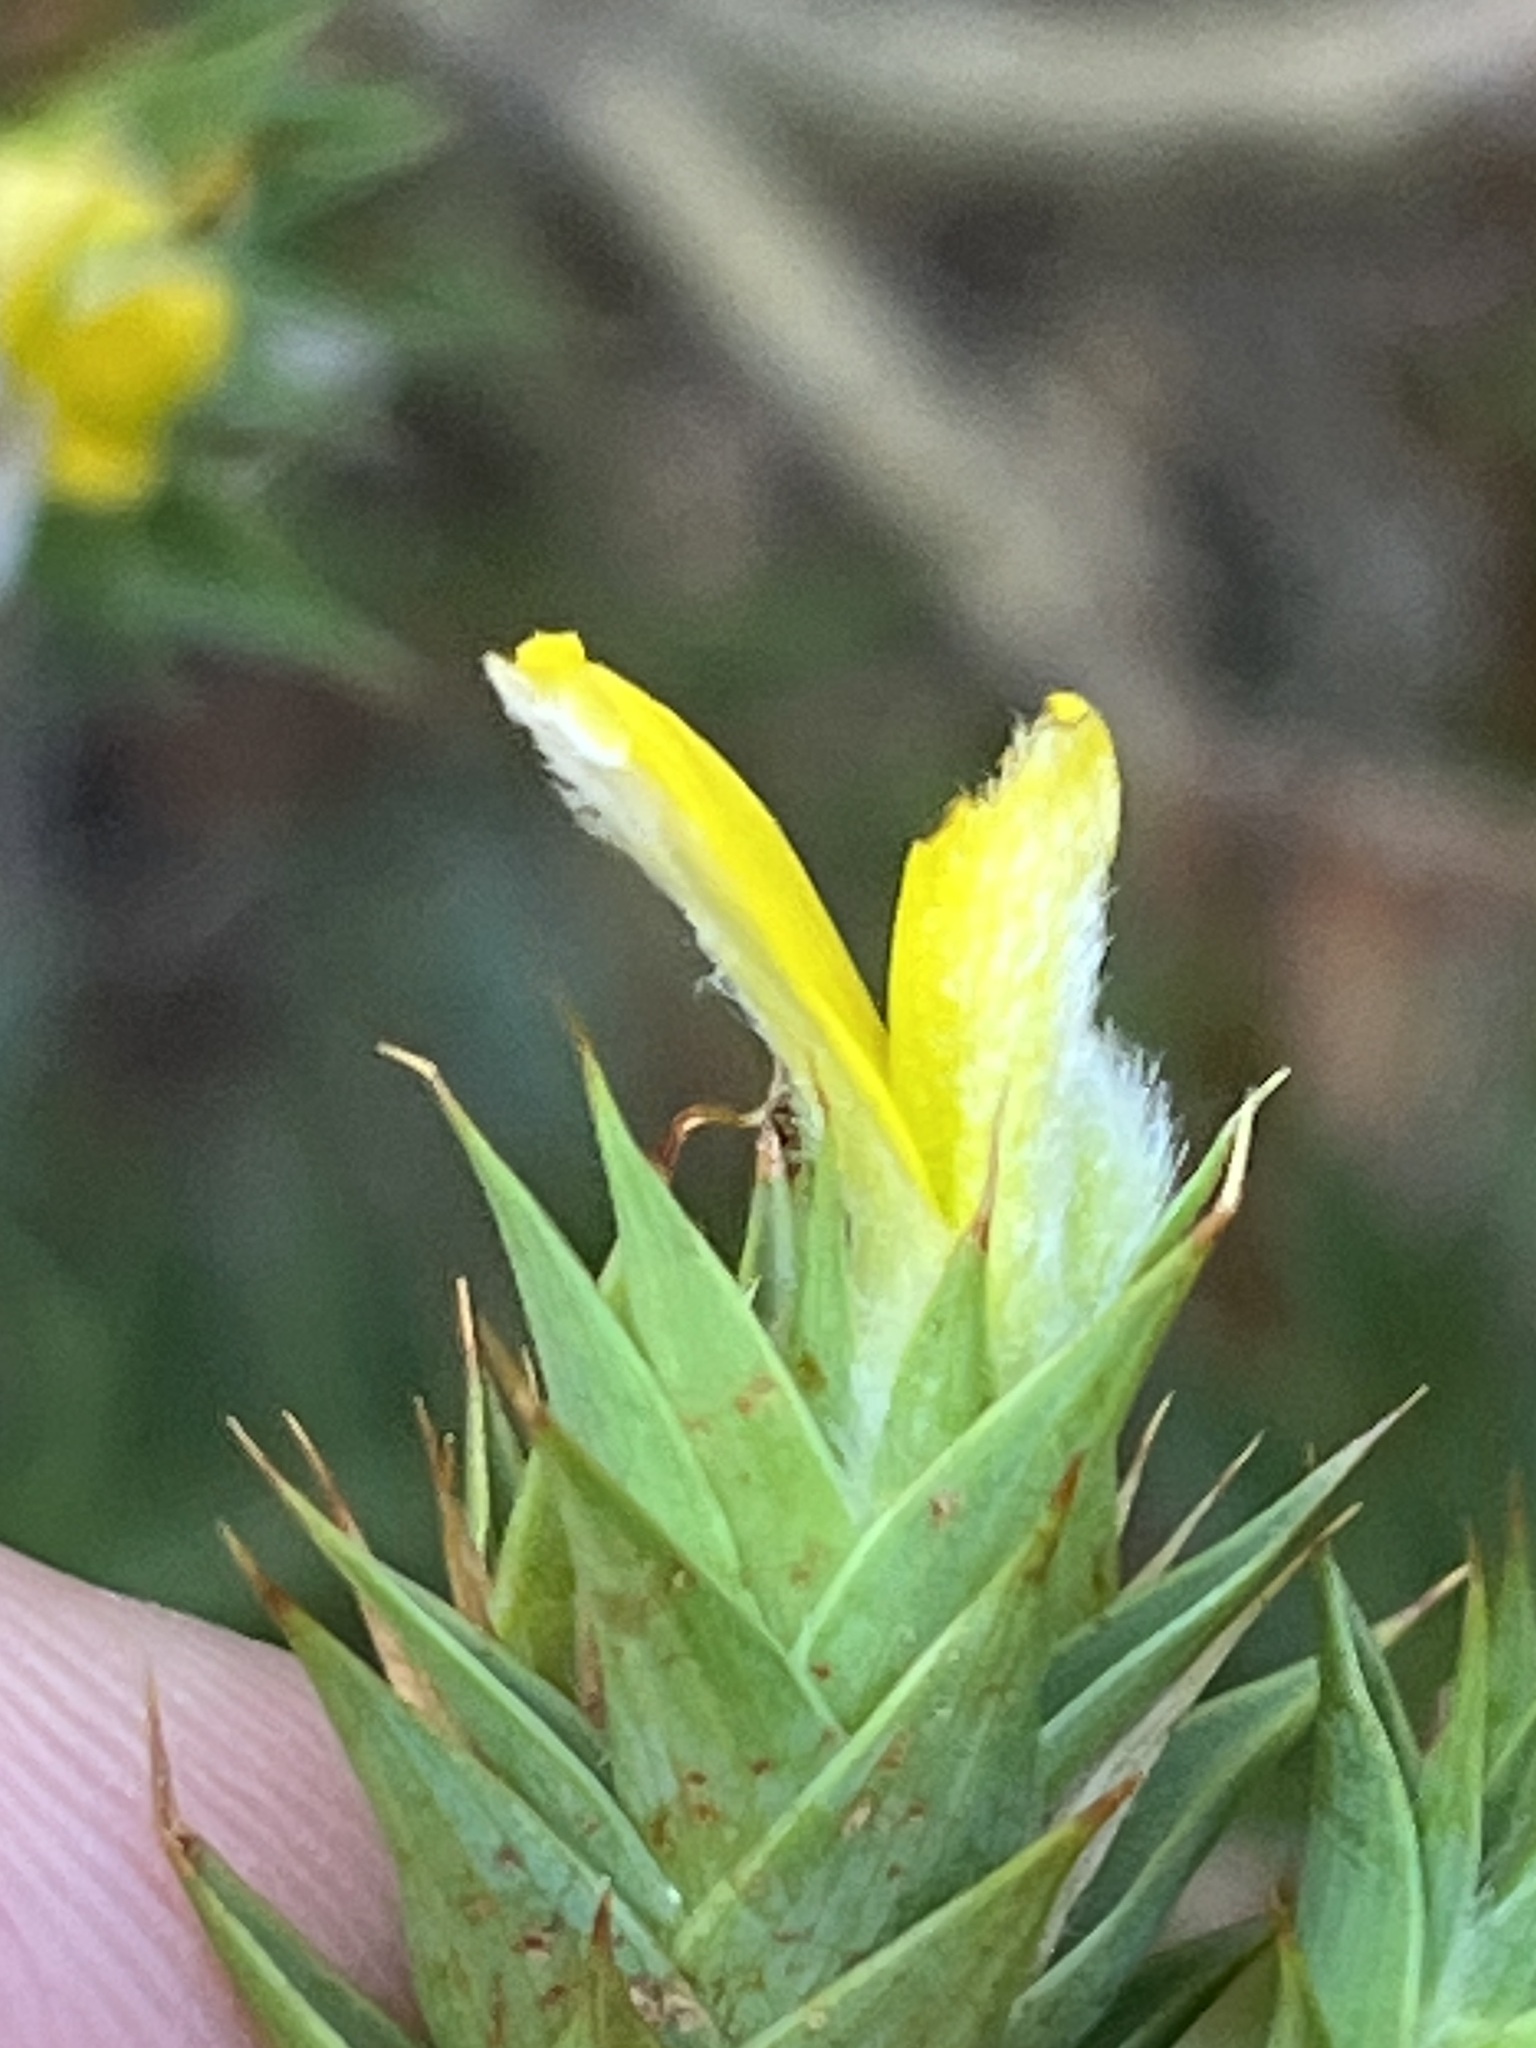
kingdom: Plantae
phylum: Tracheophyta
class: Magnoliopsida
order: Fabales
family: Fabaceae
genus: Aspalathus
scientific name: Aspalathus cordata
